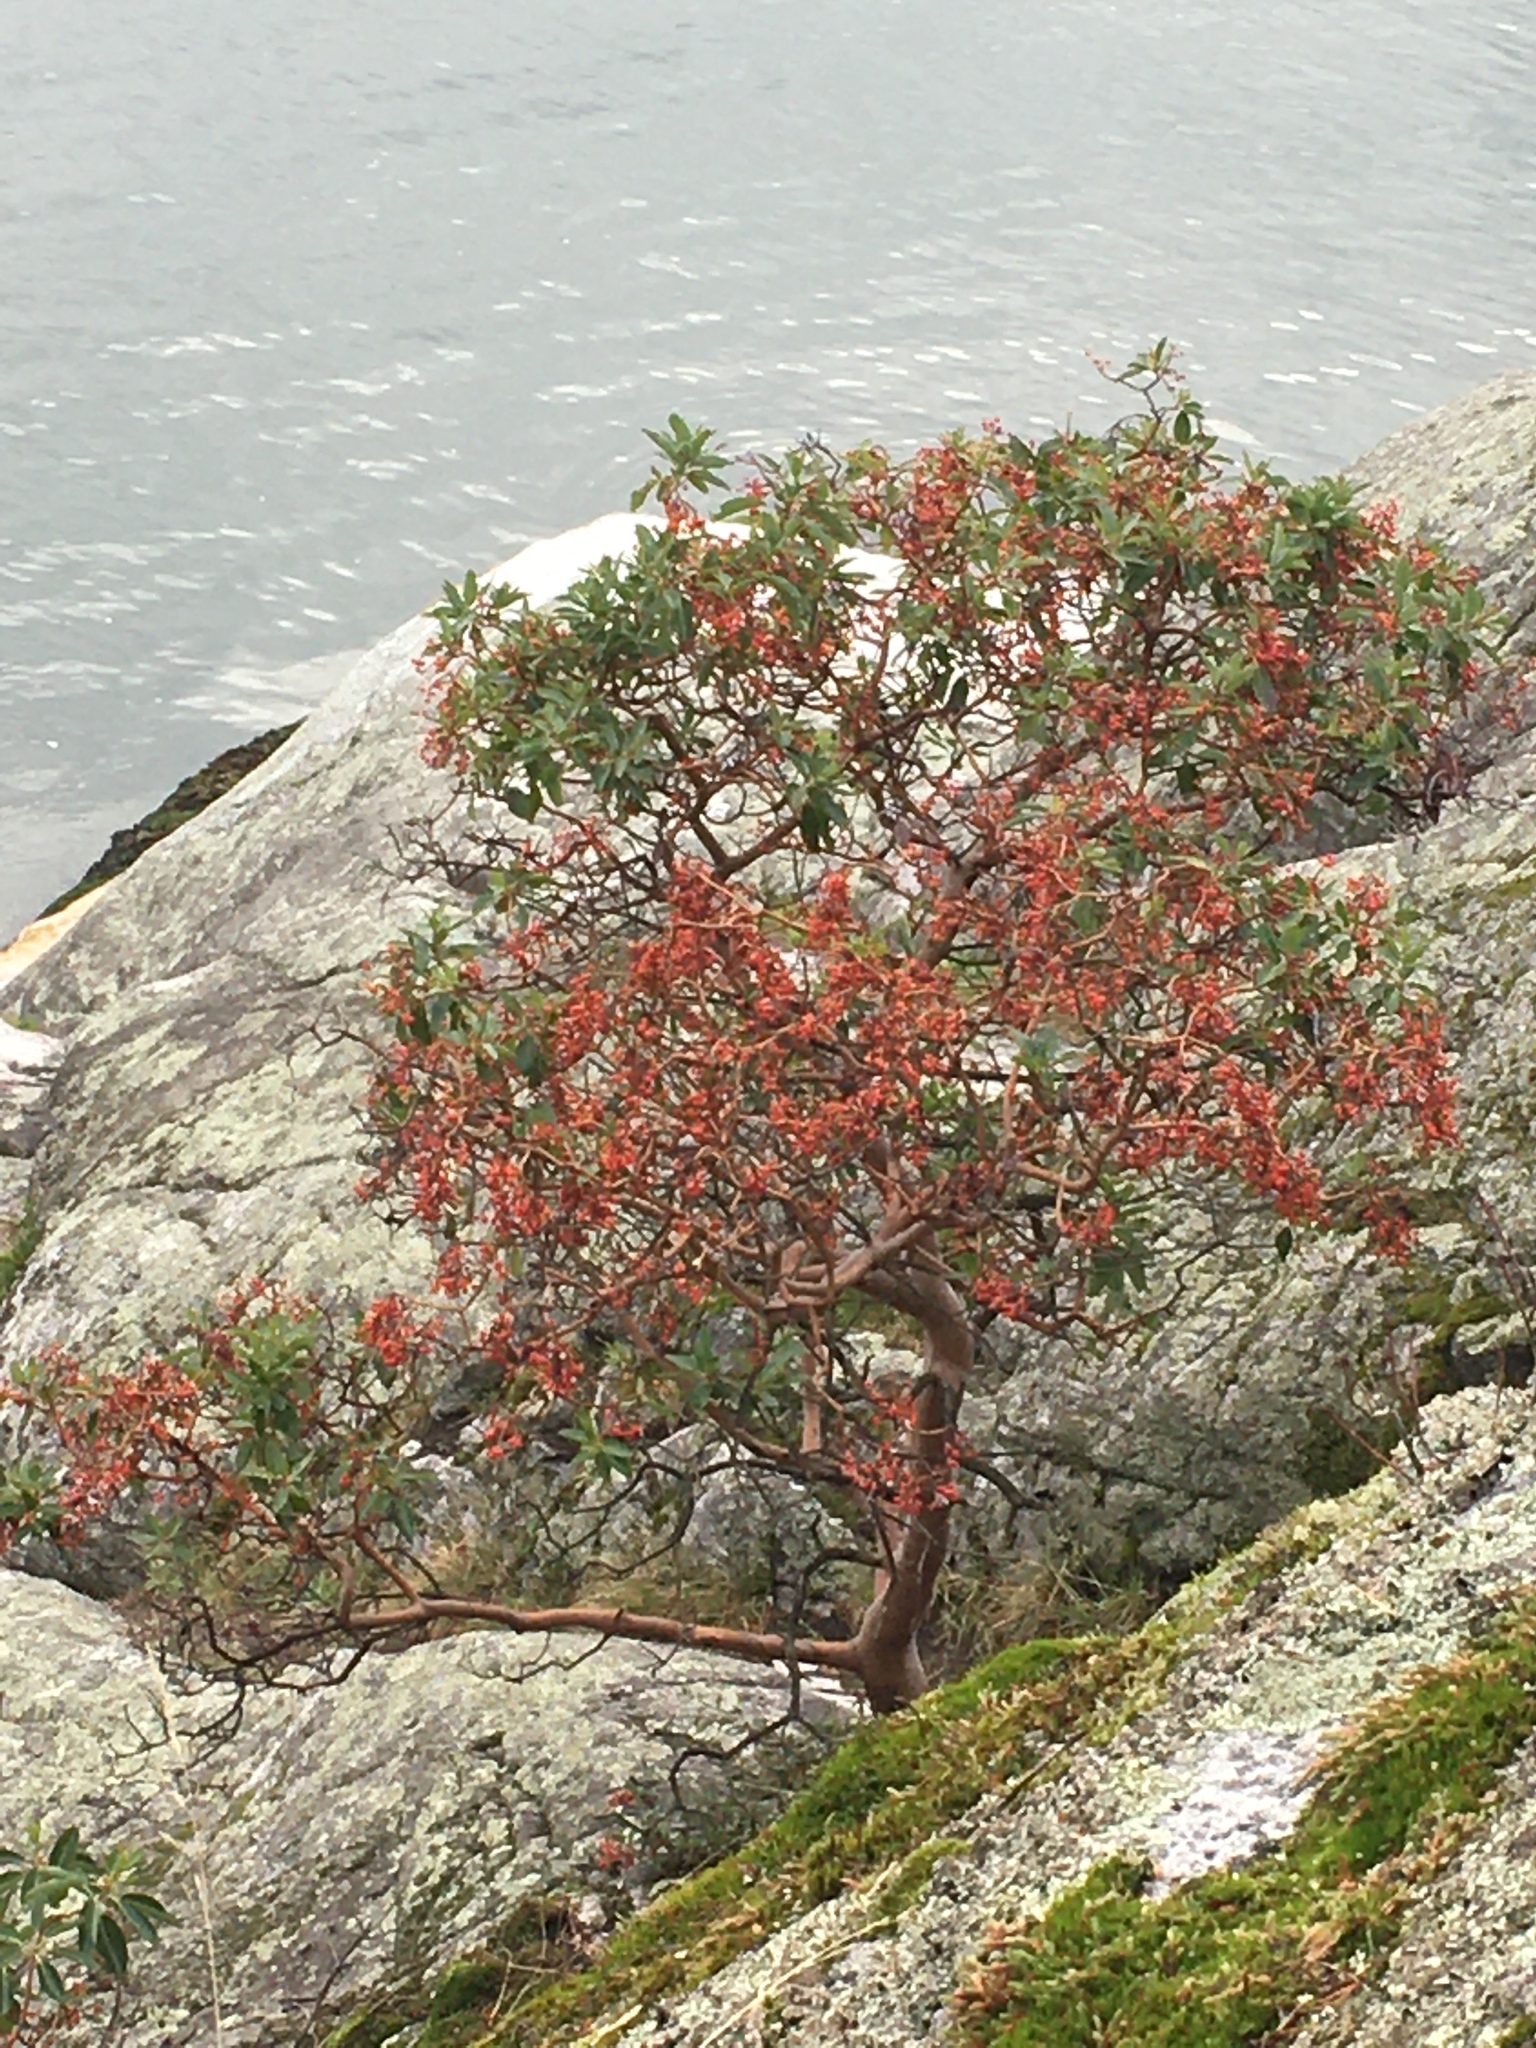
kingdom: Plantae
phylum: Tracheophyta
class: Magnoliopsida
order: Ericales
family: Ericaceae
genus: Arbutus
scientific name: Arbutus menziesii
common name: Pacific madrone
